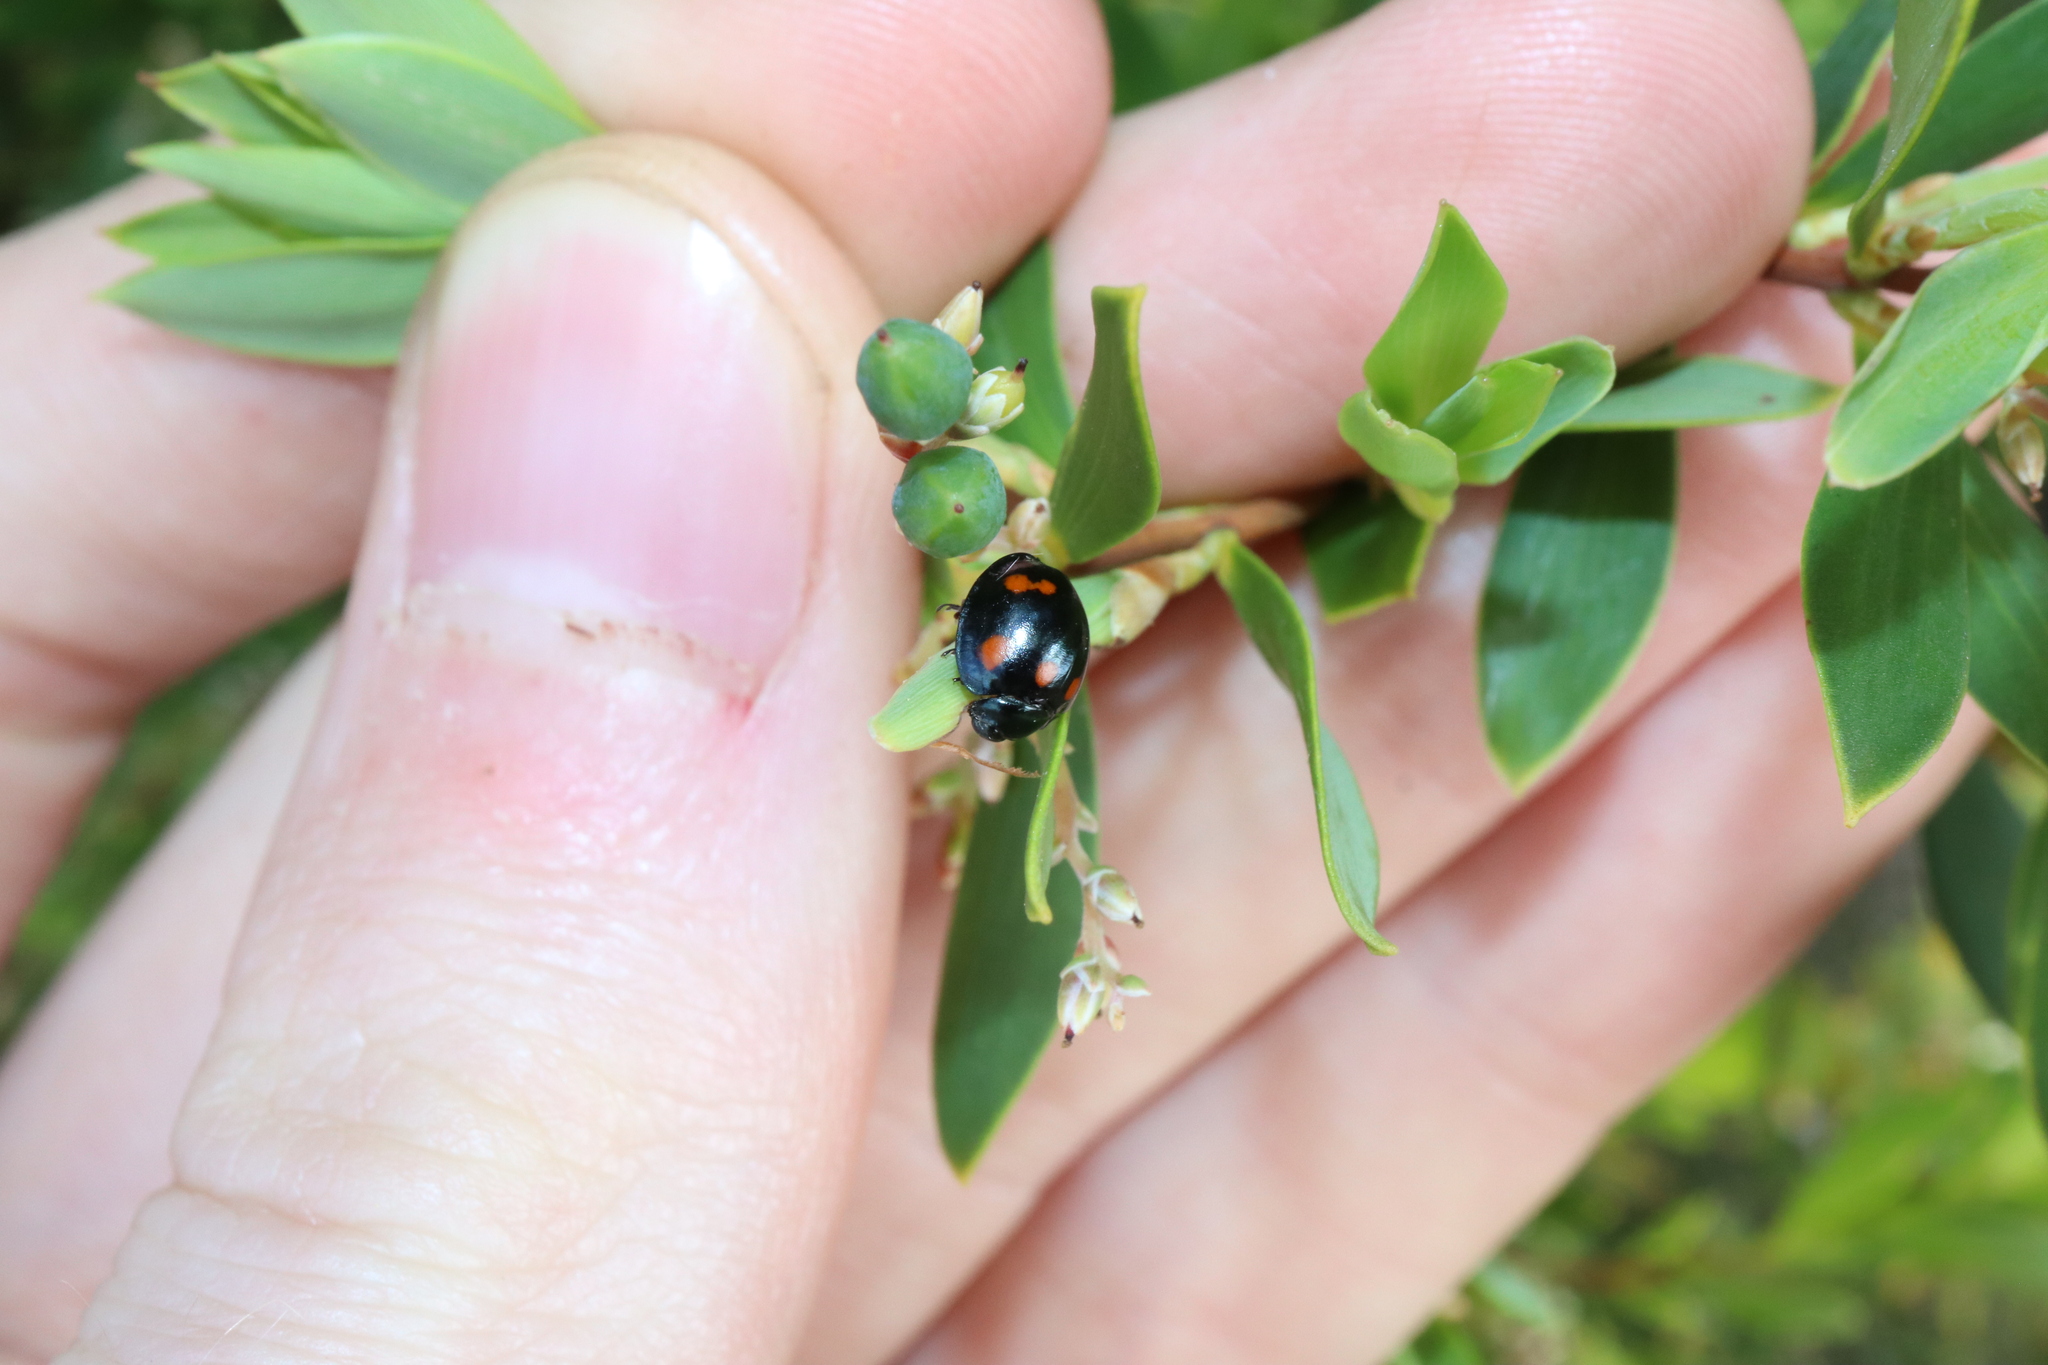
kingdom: Animalia
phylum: Arthropoda
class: Insecta
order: Coleoptera
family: Coccinellidae
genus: Orcus
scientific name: Orcus australasiae
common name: Lady beetle
